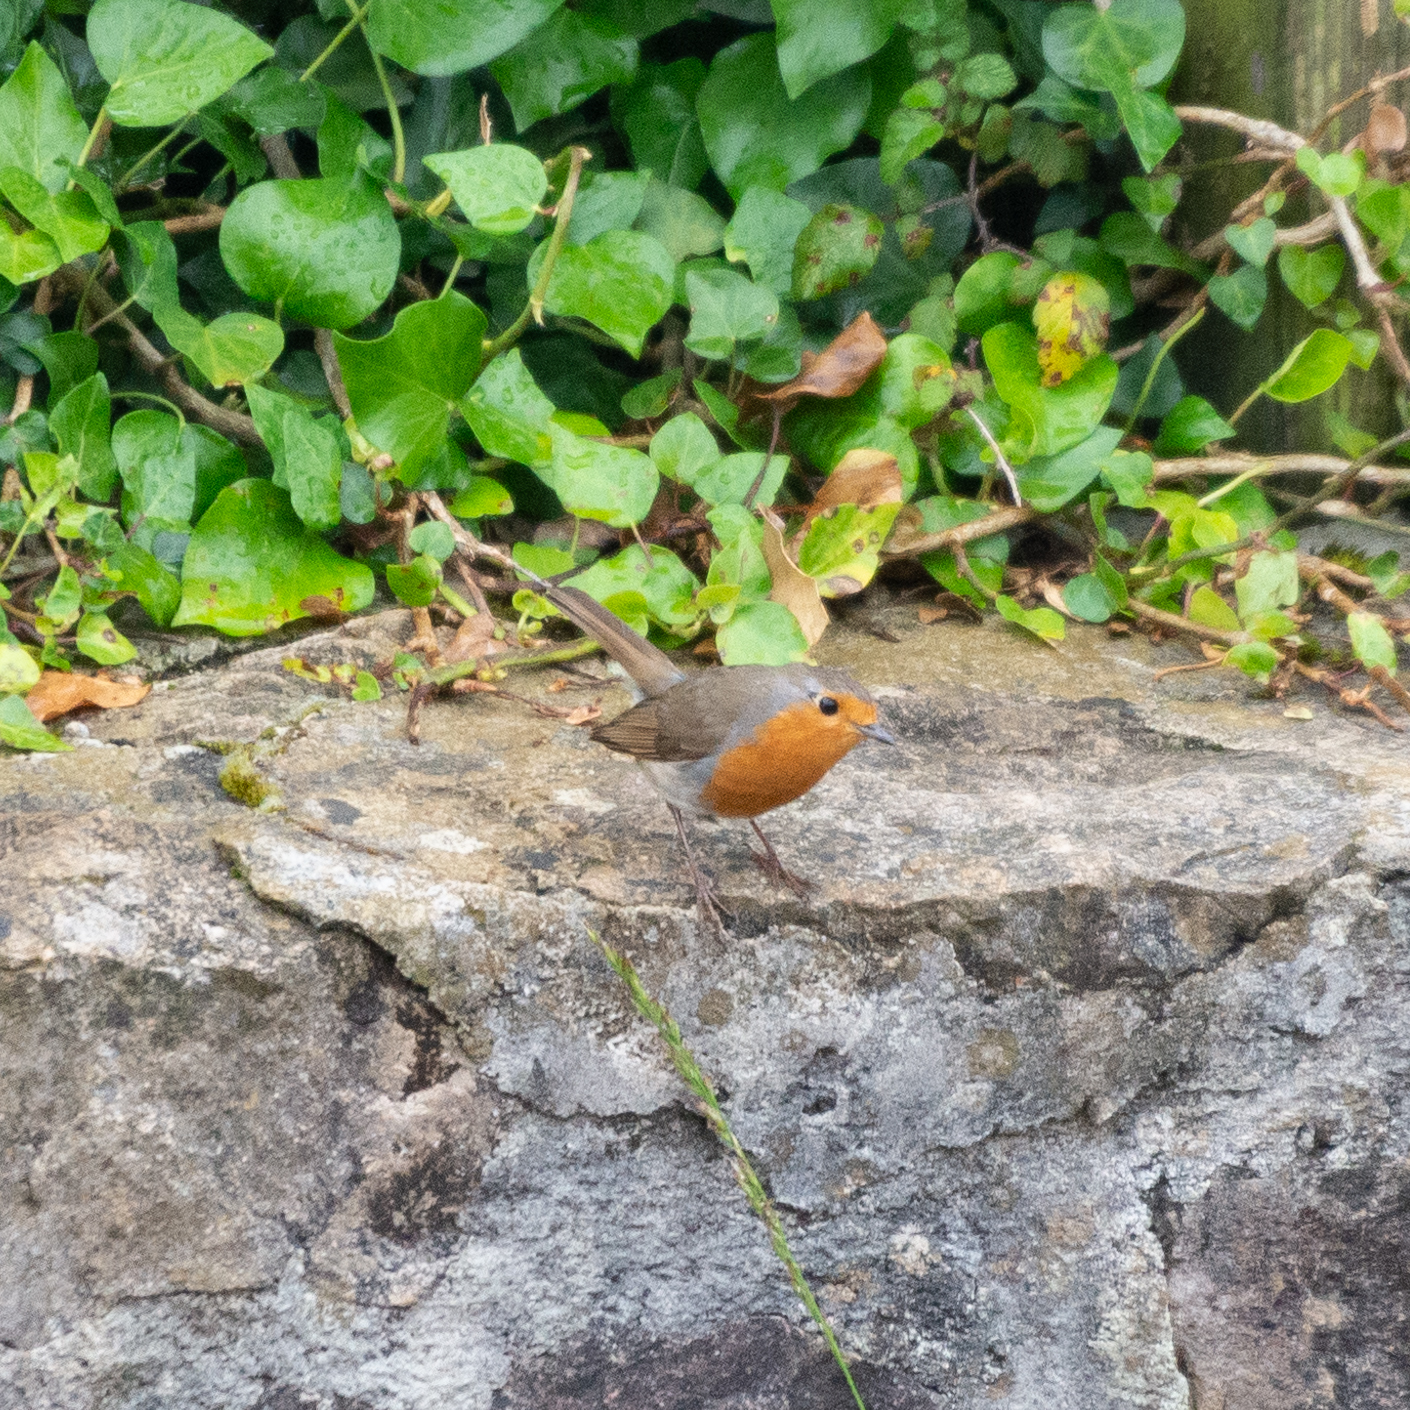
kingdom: Animalia
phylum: Chordata
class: Aves
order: Passeriformes
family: Muscicapidae
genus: Erithacus
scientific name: Erithacus rubecula
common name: European robin
